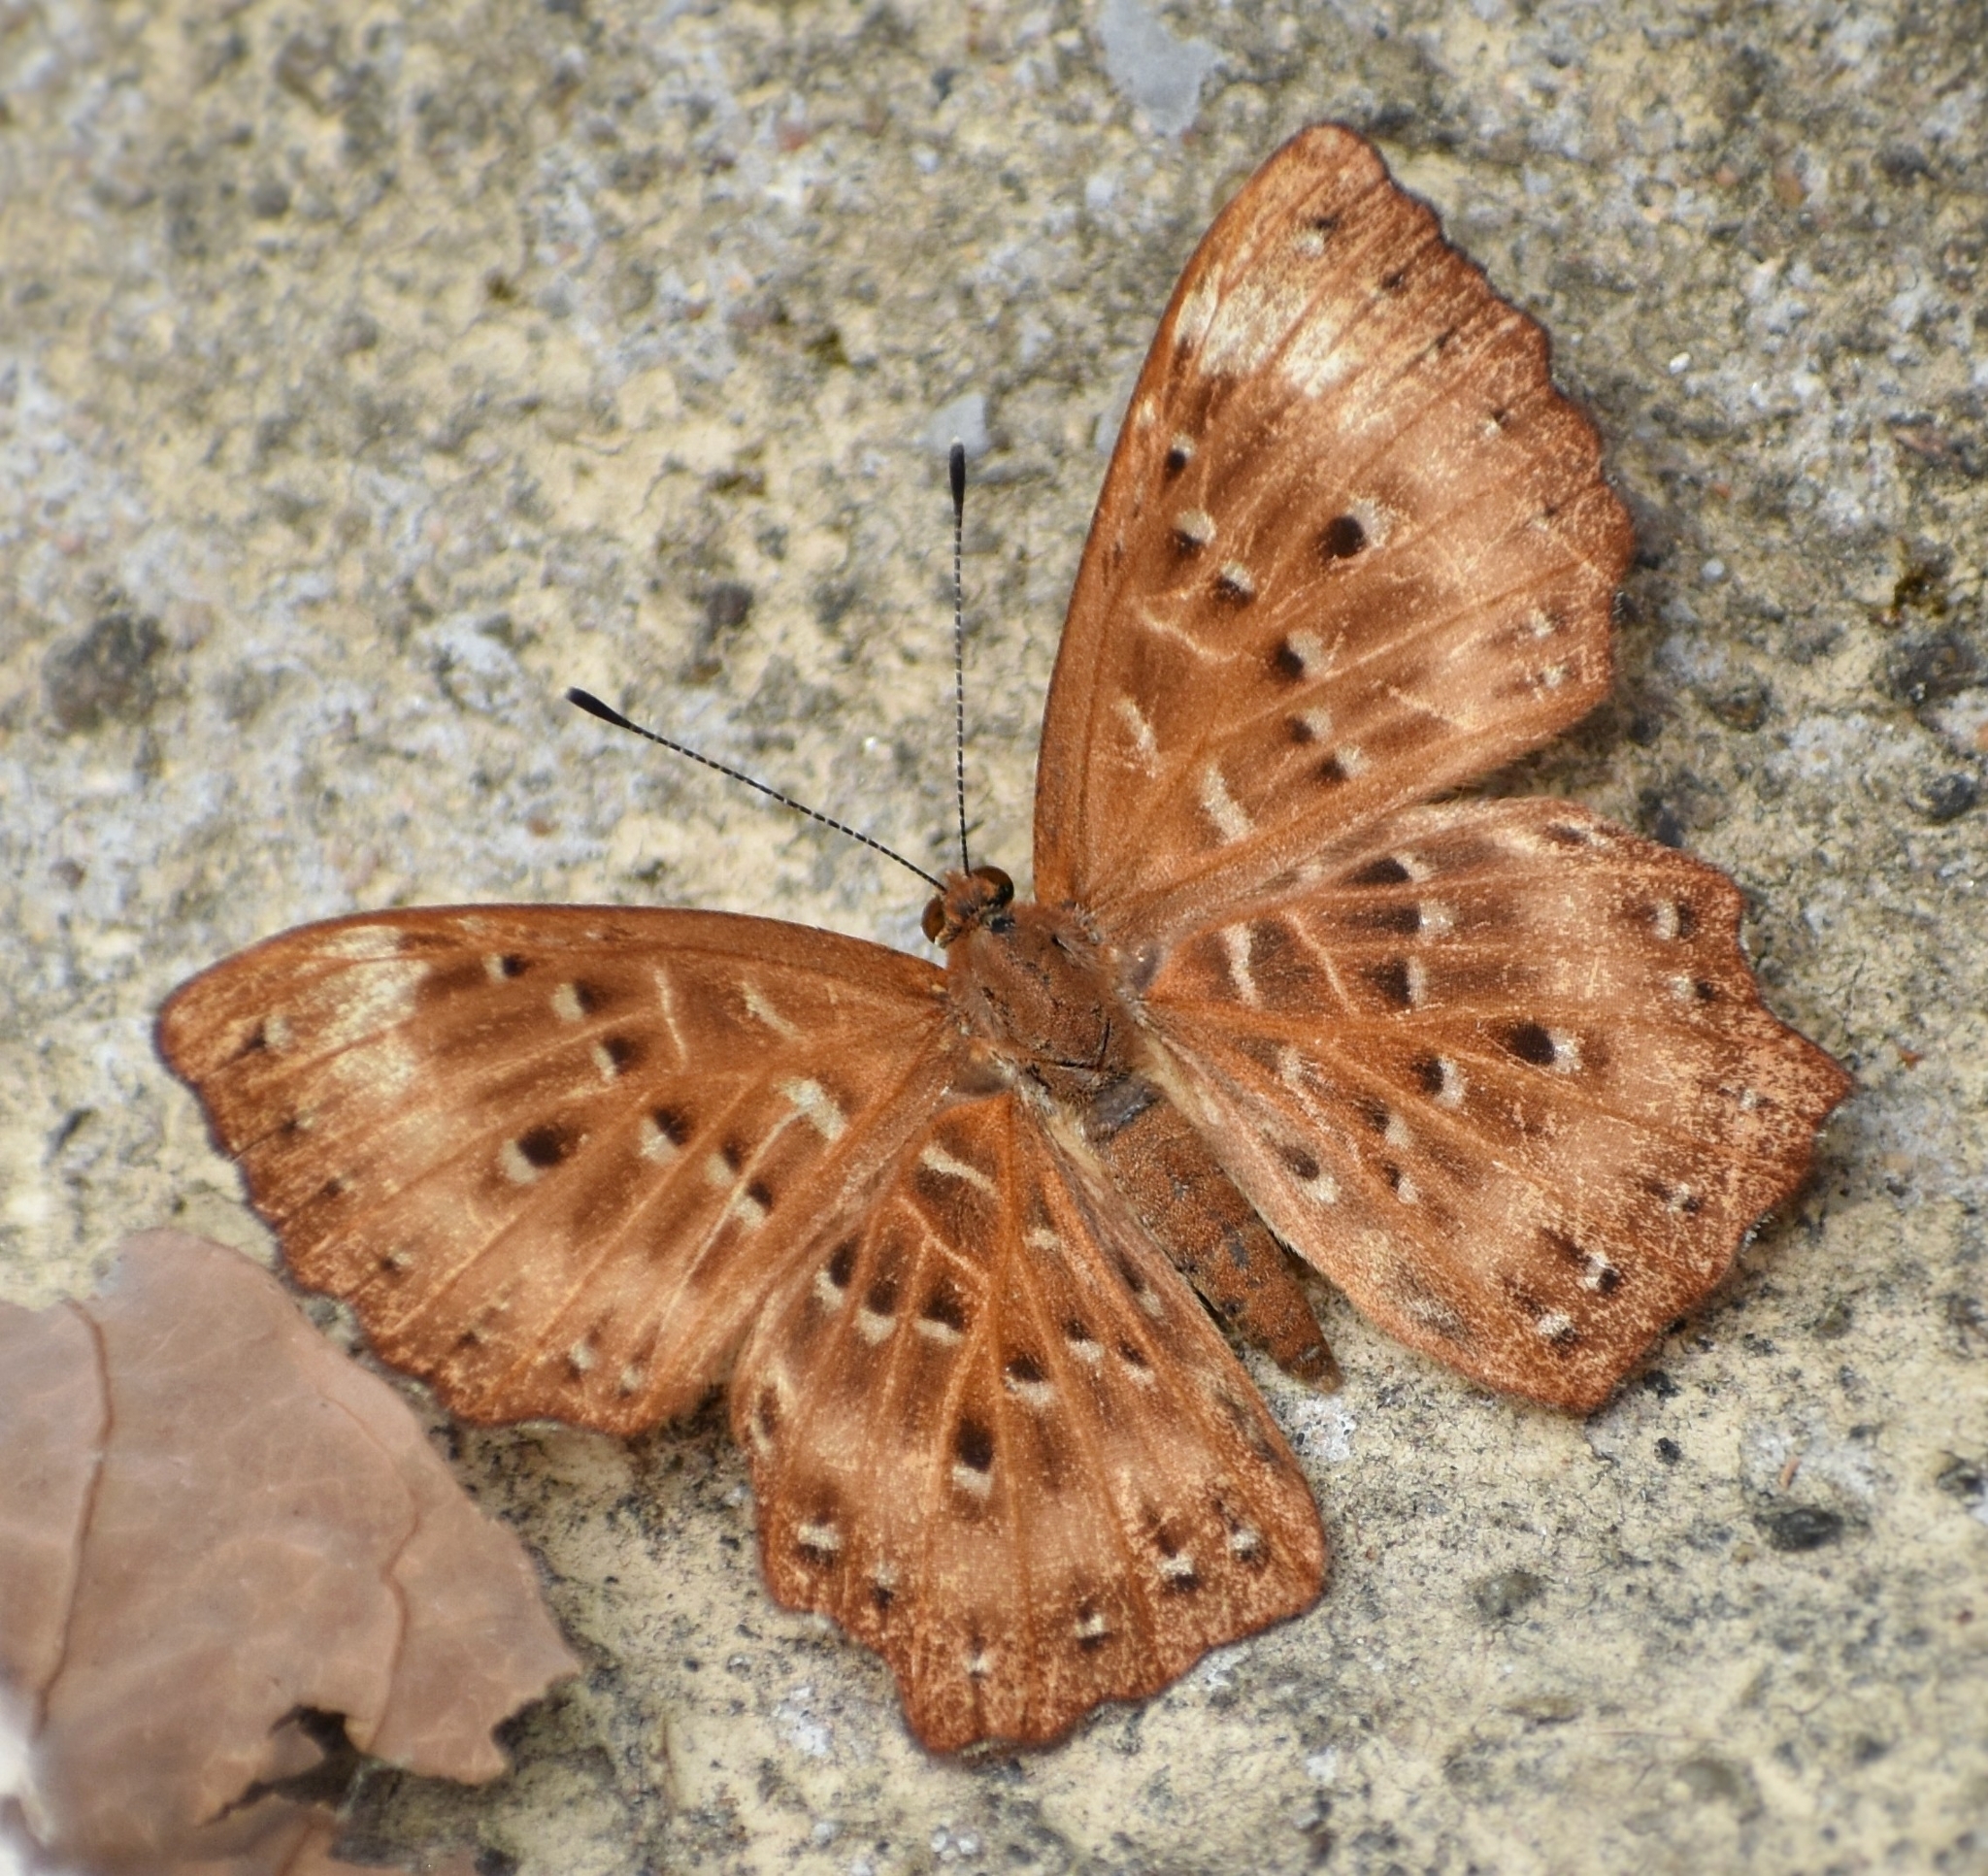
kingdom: Animalia
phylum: Arthropoda
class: Insecta
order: Lepidoptera
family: Riodinidae
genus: Zemeros
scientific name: Zemeros flegyas
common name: Punchinello
